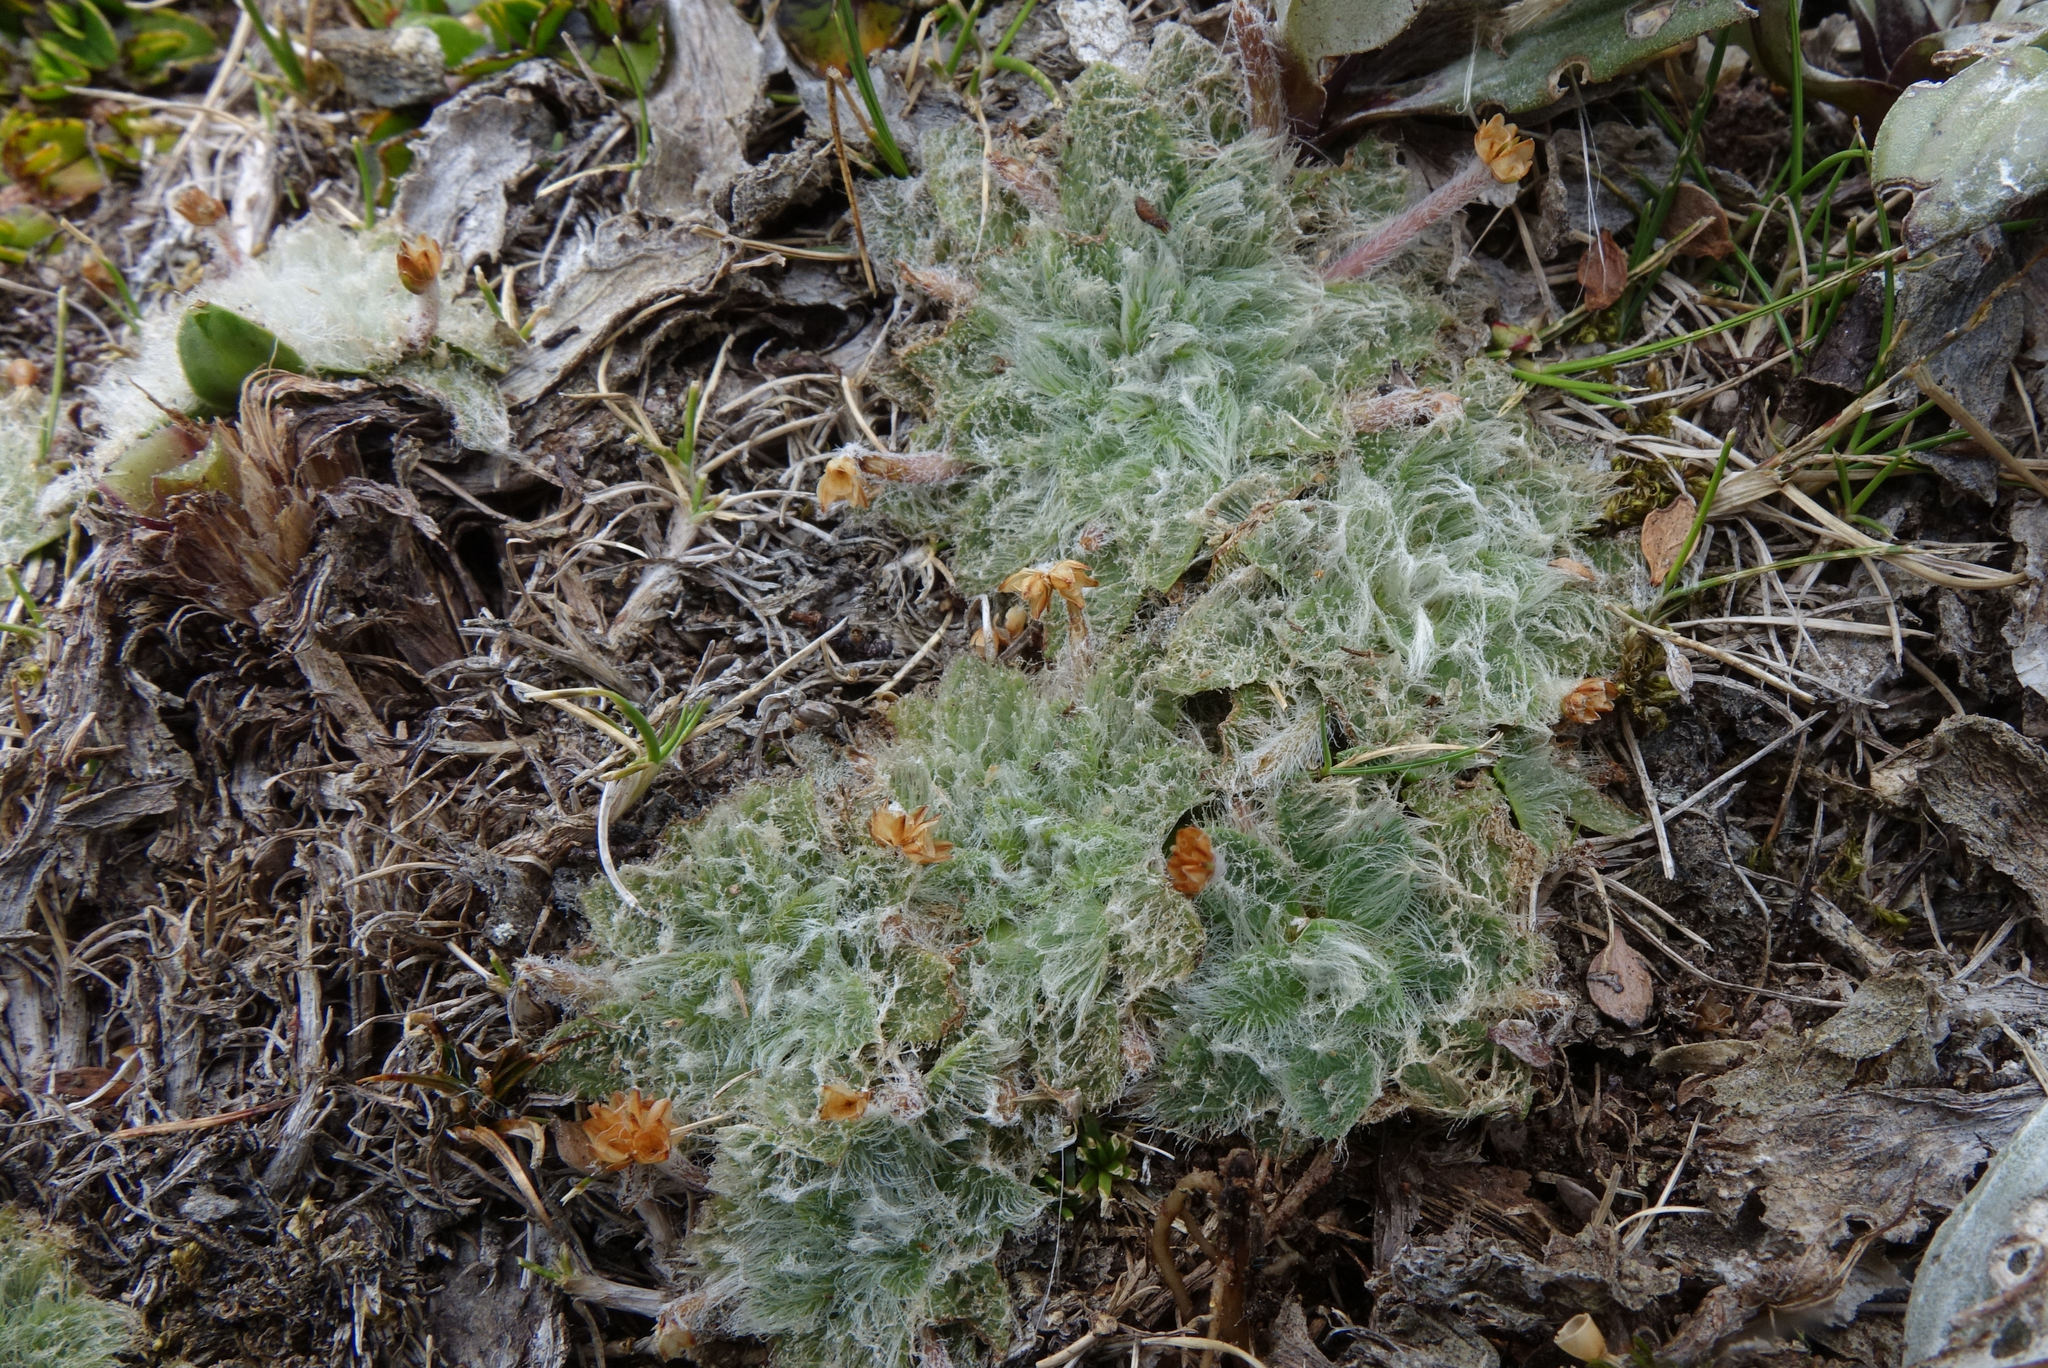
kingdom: Plantae
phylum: Tracheophyta
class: Magnoliopsida
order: Lamiales
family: Plantaginaceae
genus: Plantago
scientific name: Plantago lanigera
